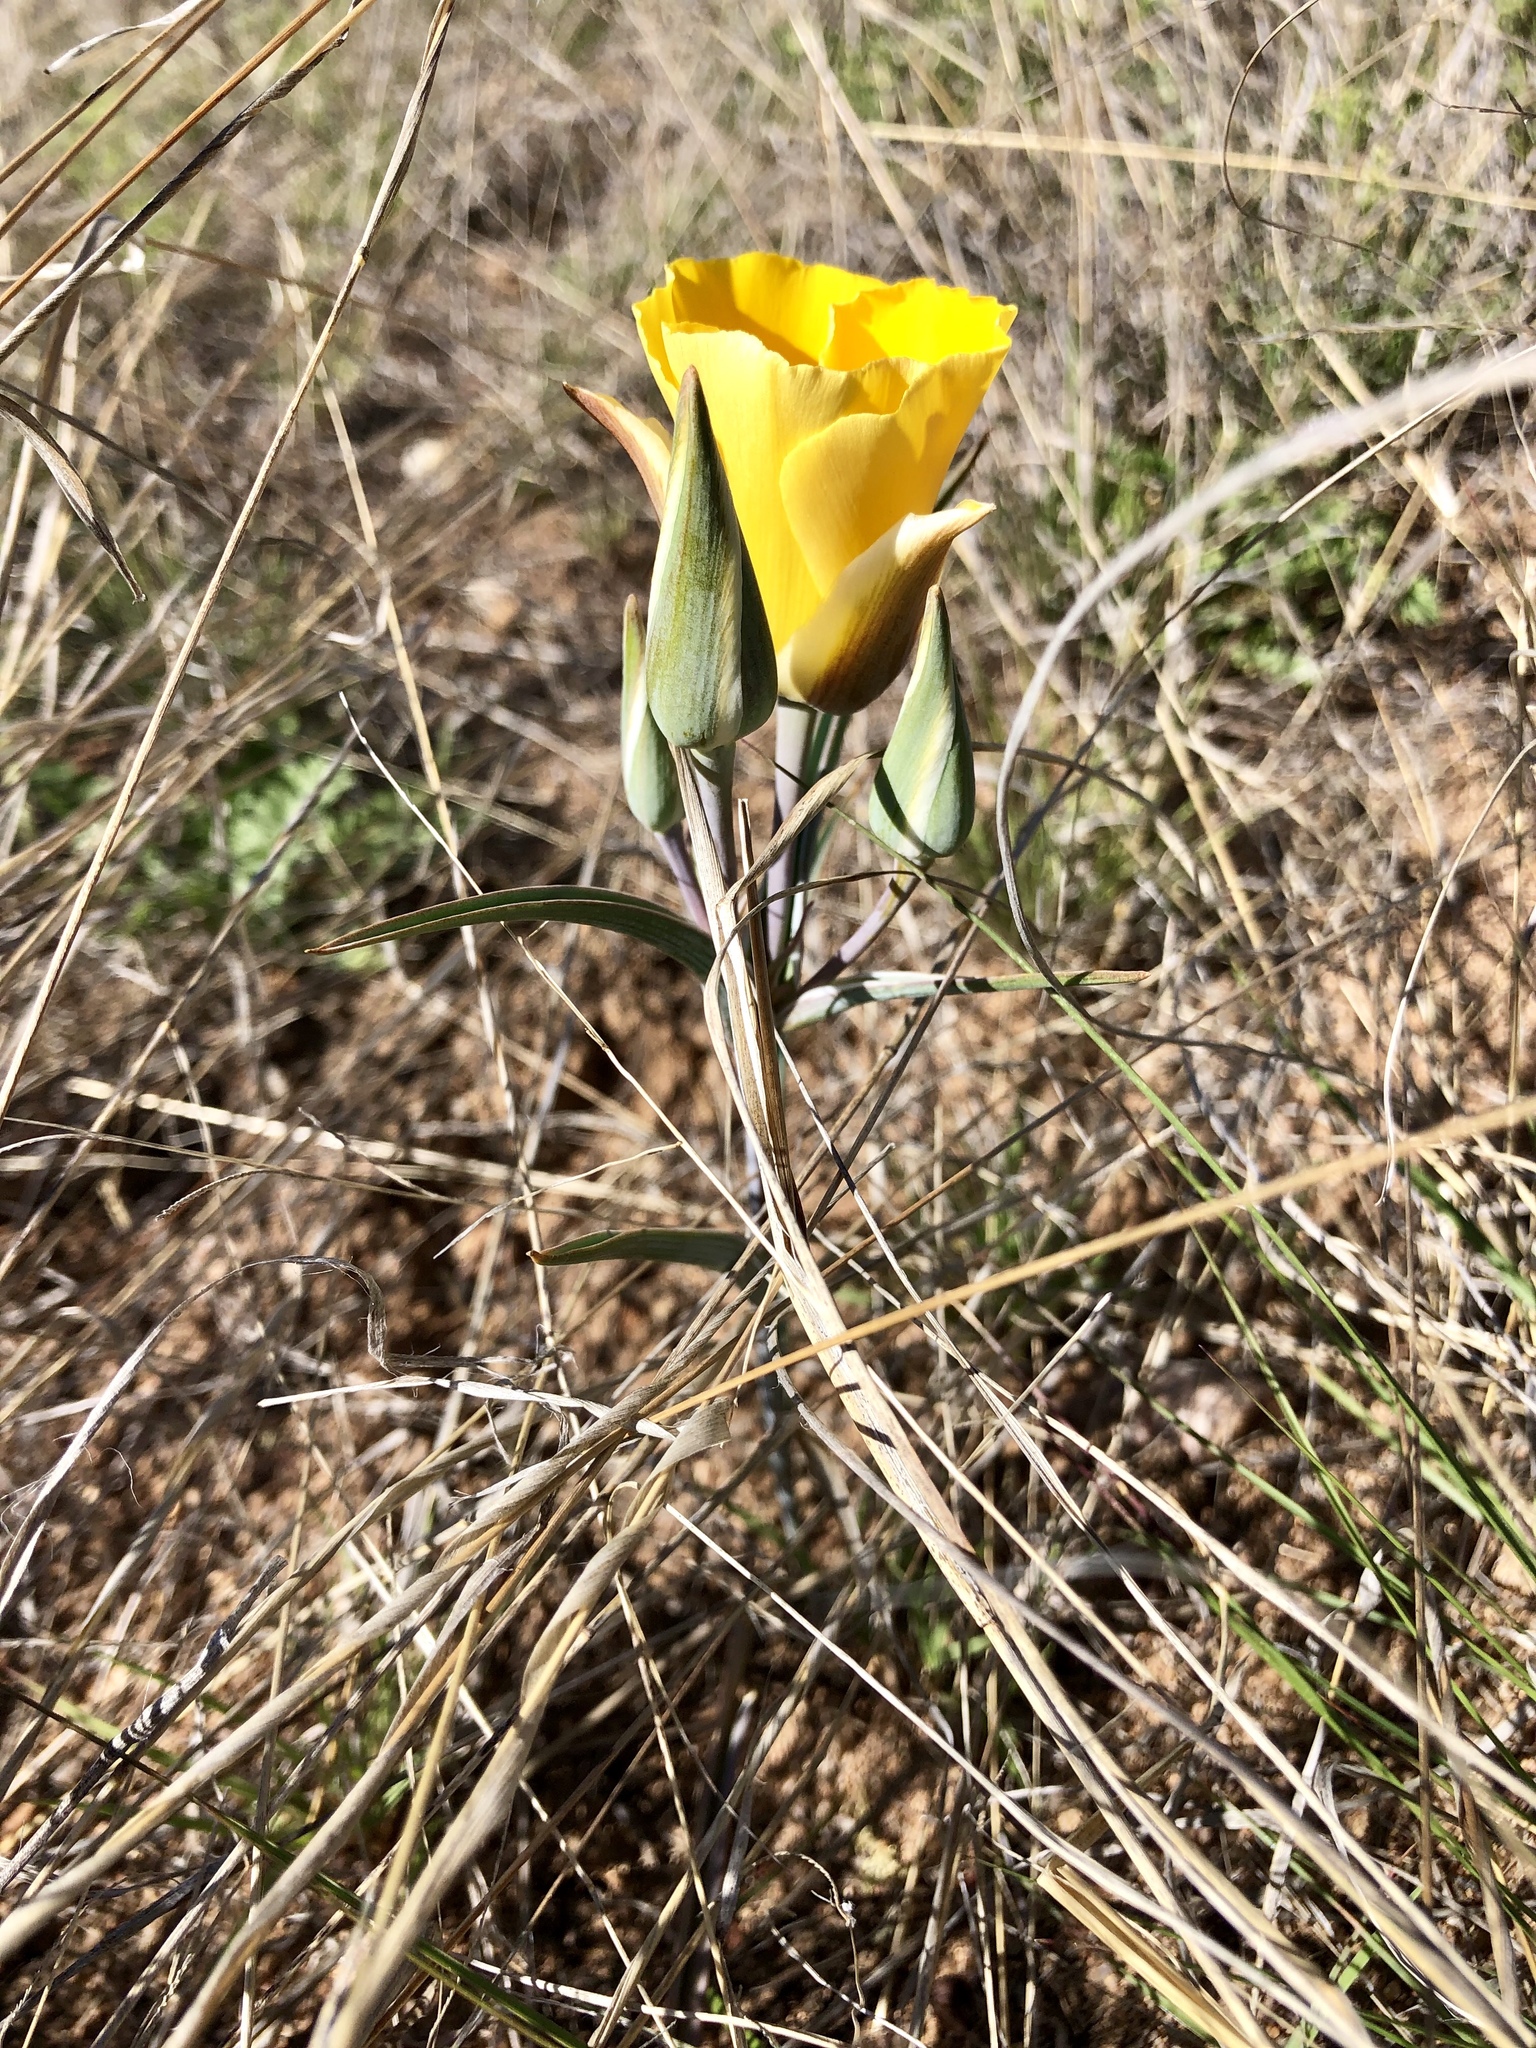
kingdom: Plantae
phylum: Tracheophyta
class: Liliopsida
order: Liliales
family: Liliaceae
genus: Calochortus
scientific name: Calochortus kennedyi
